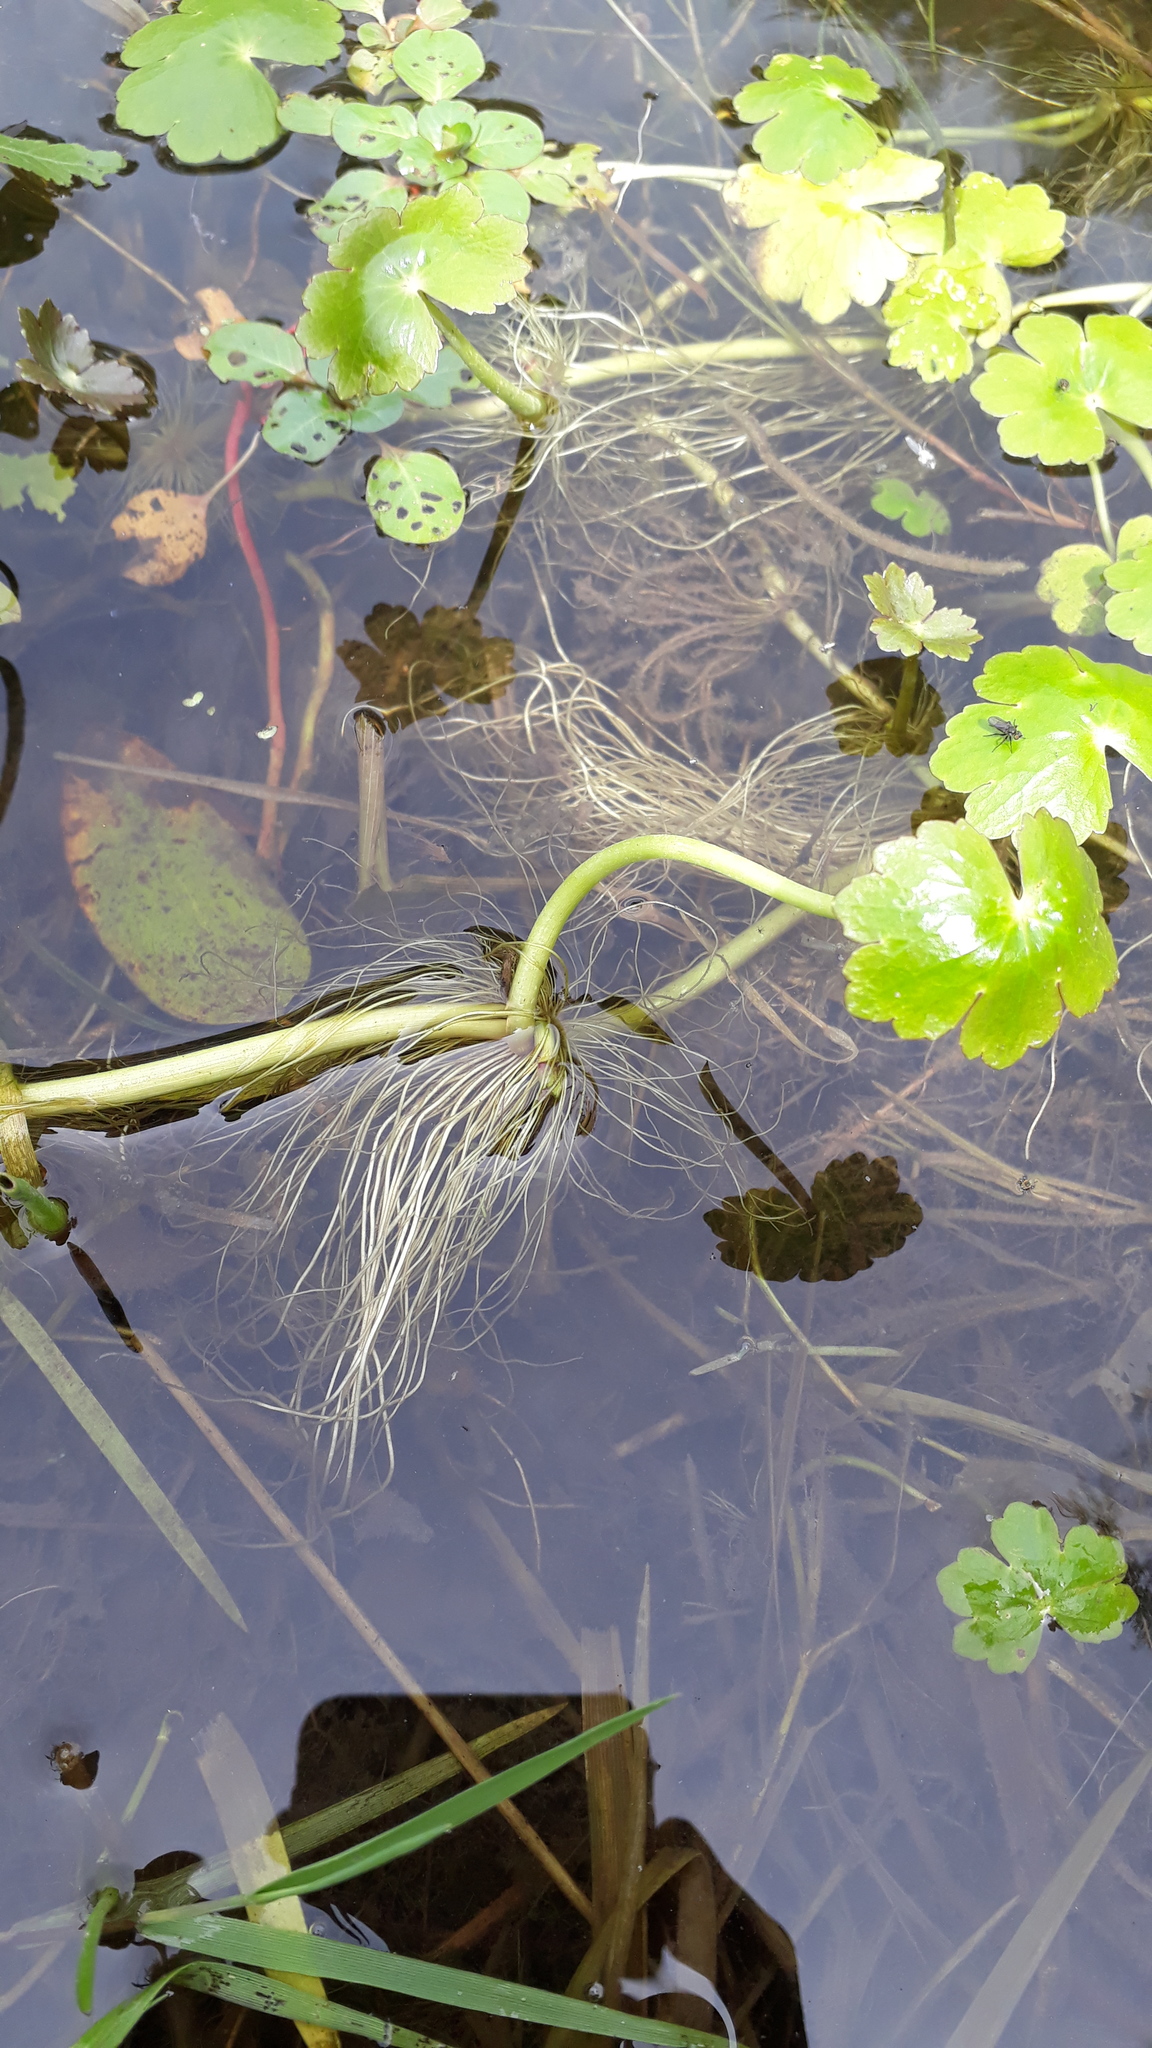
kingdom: Plantae
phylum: Tracheophyta
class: Magnoliopsida
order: Apiales
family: Araliaceae
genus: Hydrocotyle
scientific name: Hydrocotyle ranunculoides
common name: Floating pennywort
